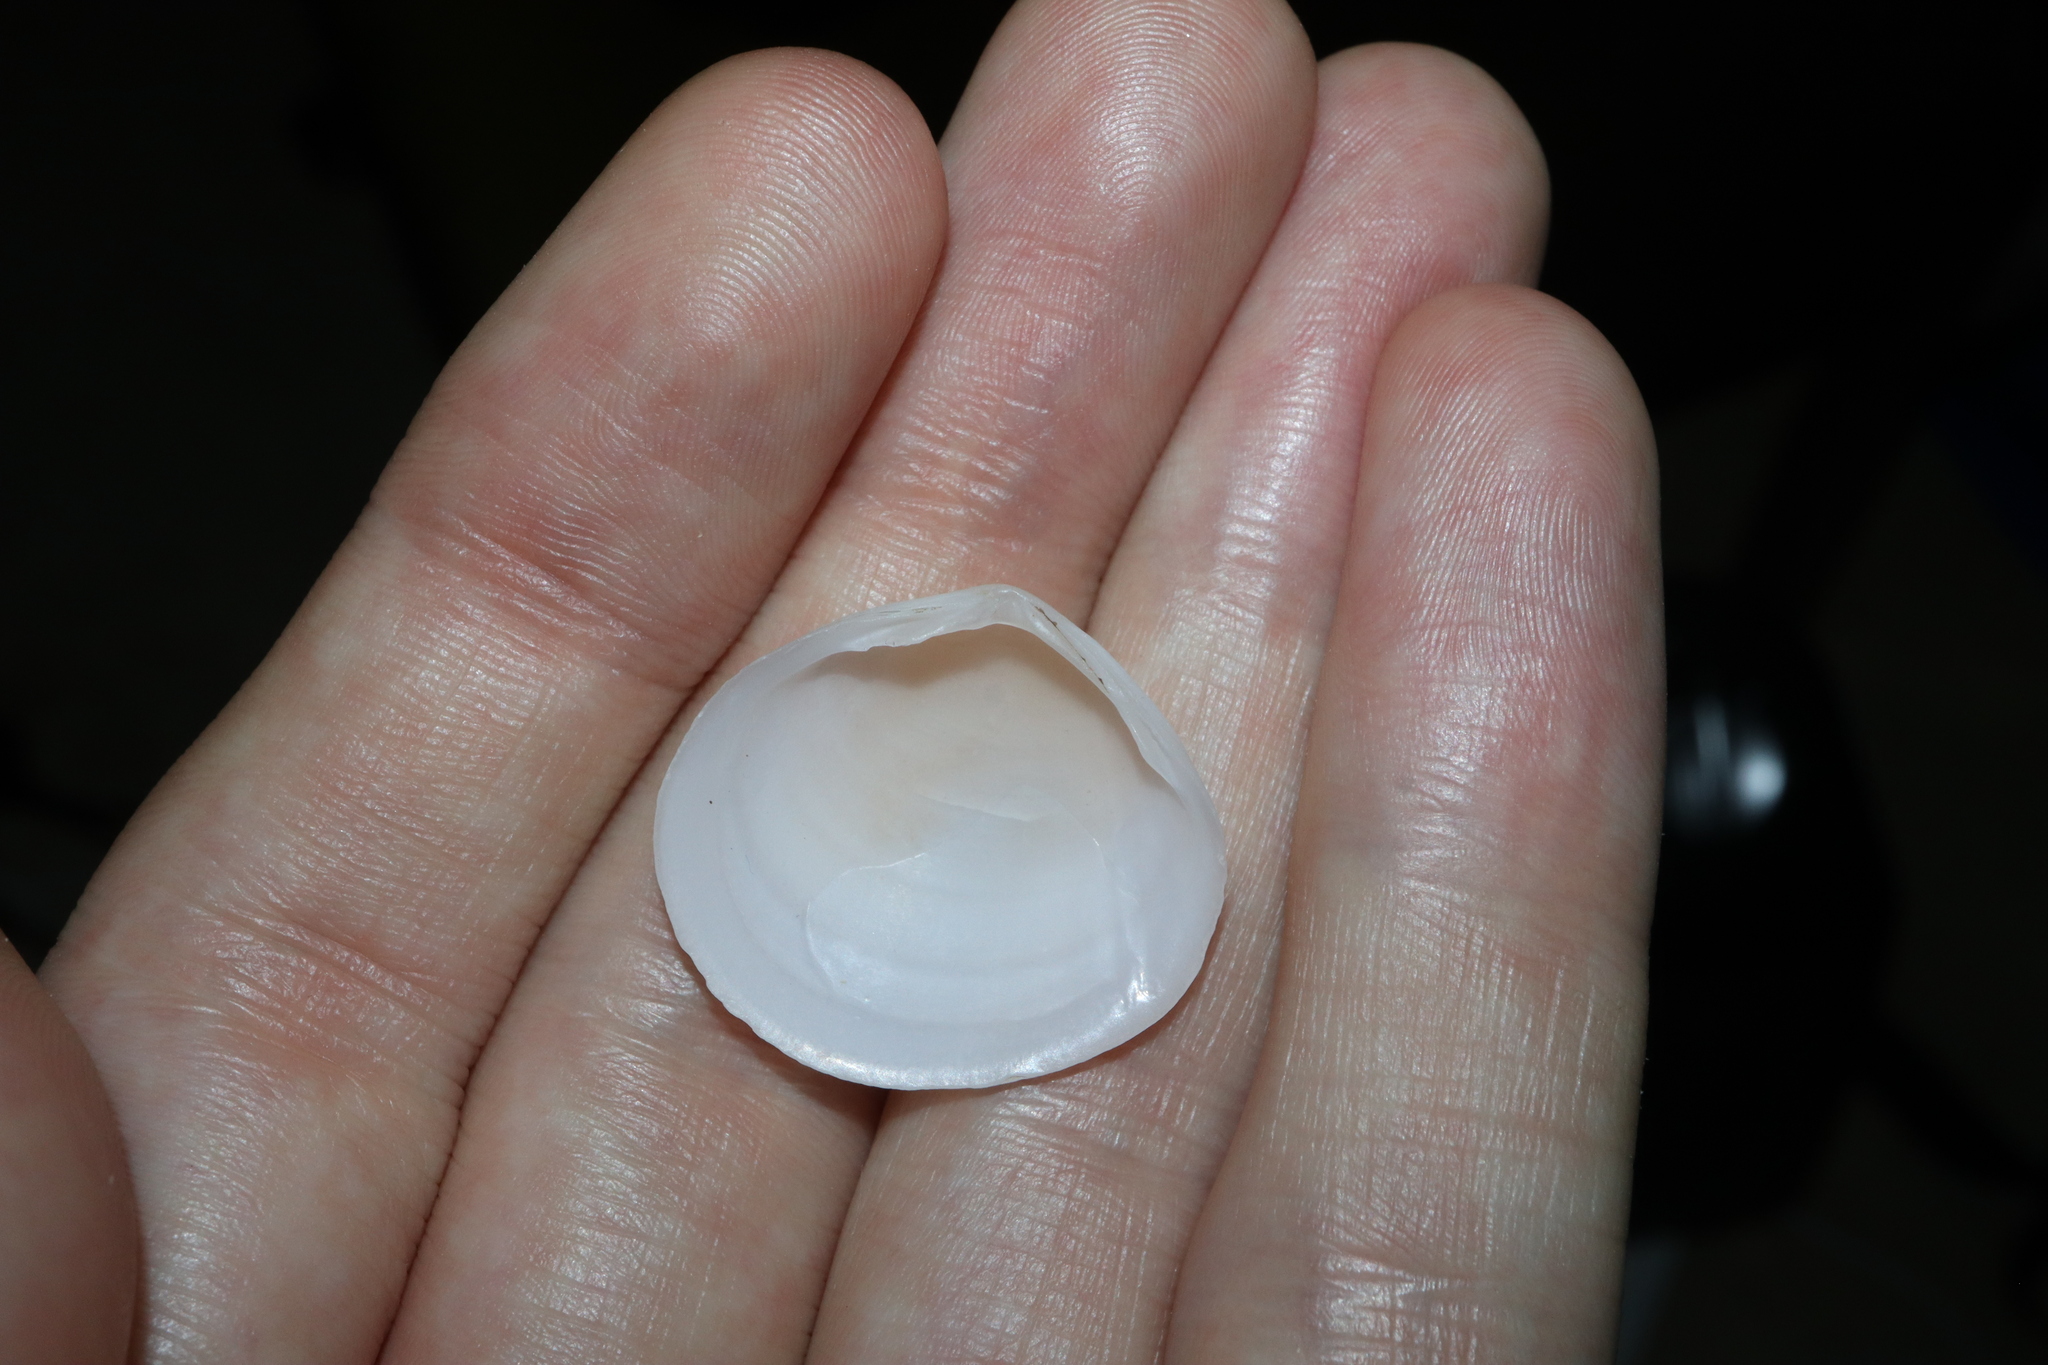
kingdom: Animalia
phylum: Mollusca
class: Bivalvia
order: Cardiida
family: Tellinidae
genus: Pseudarcopagia
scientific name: Pseudarcopagia botanica
